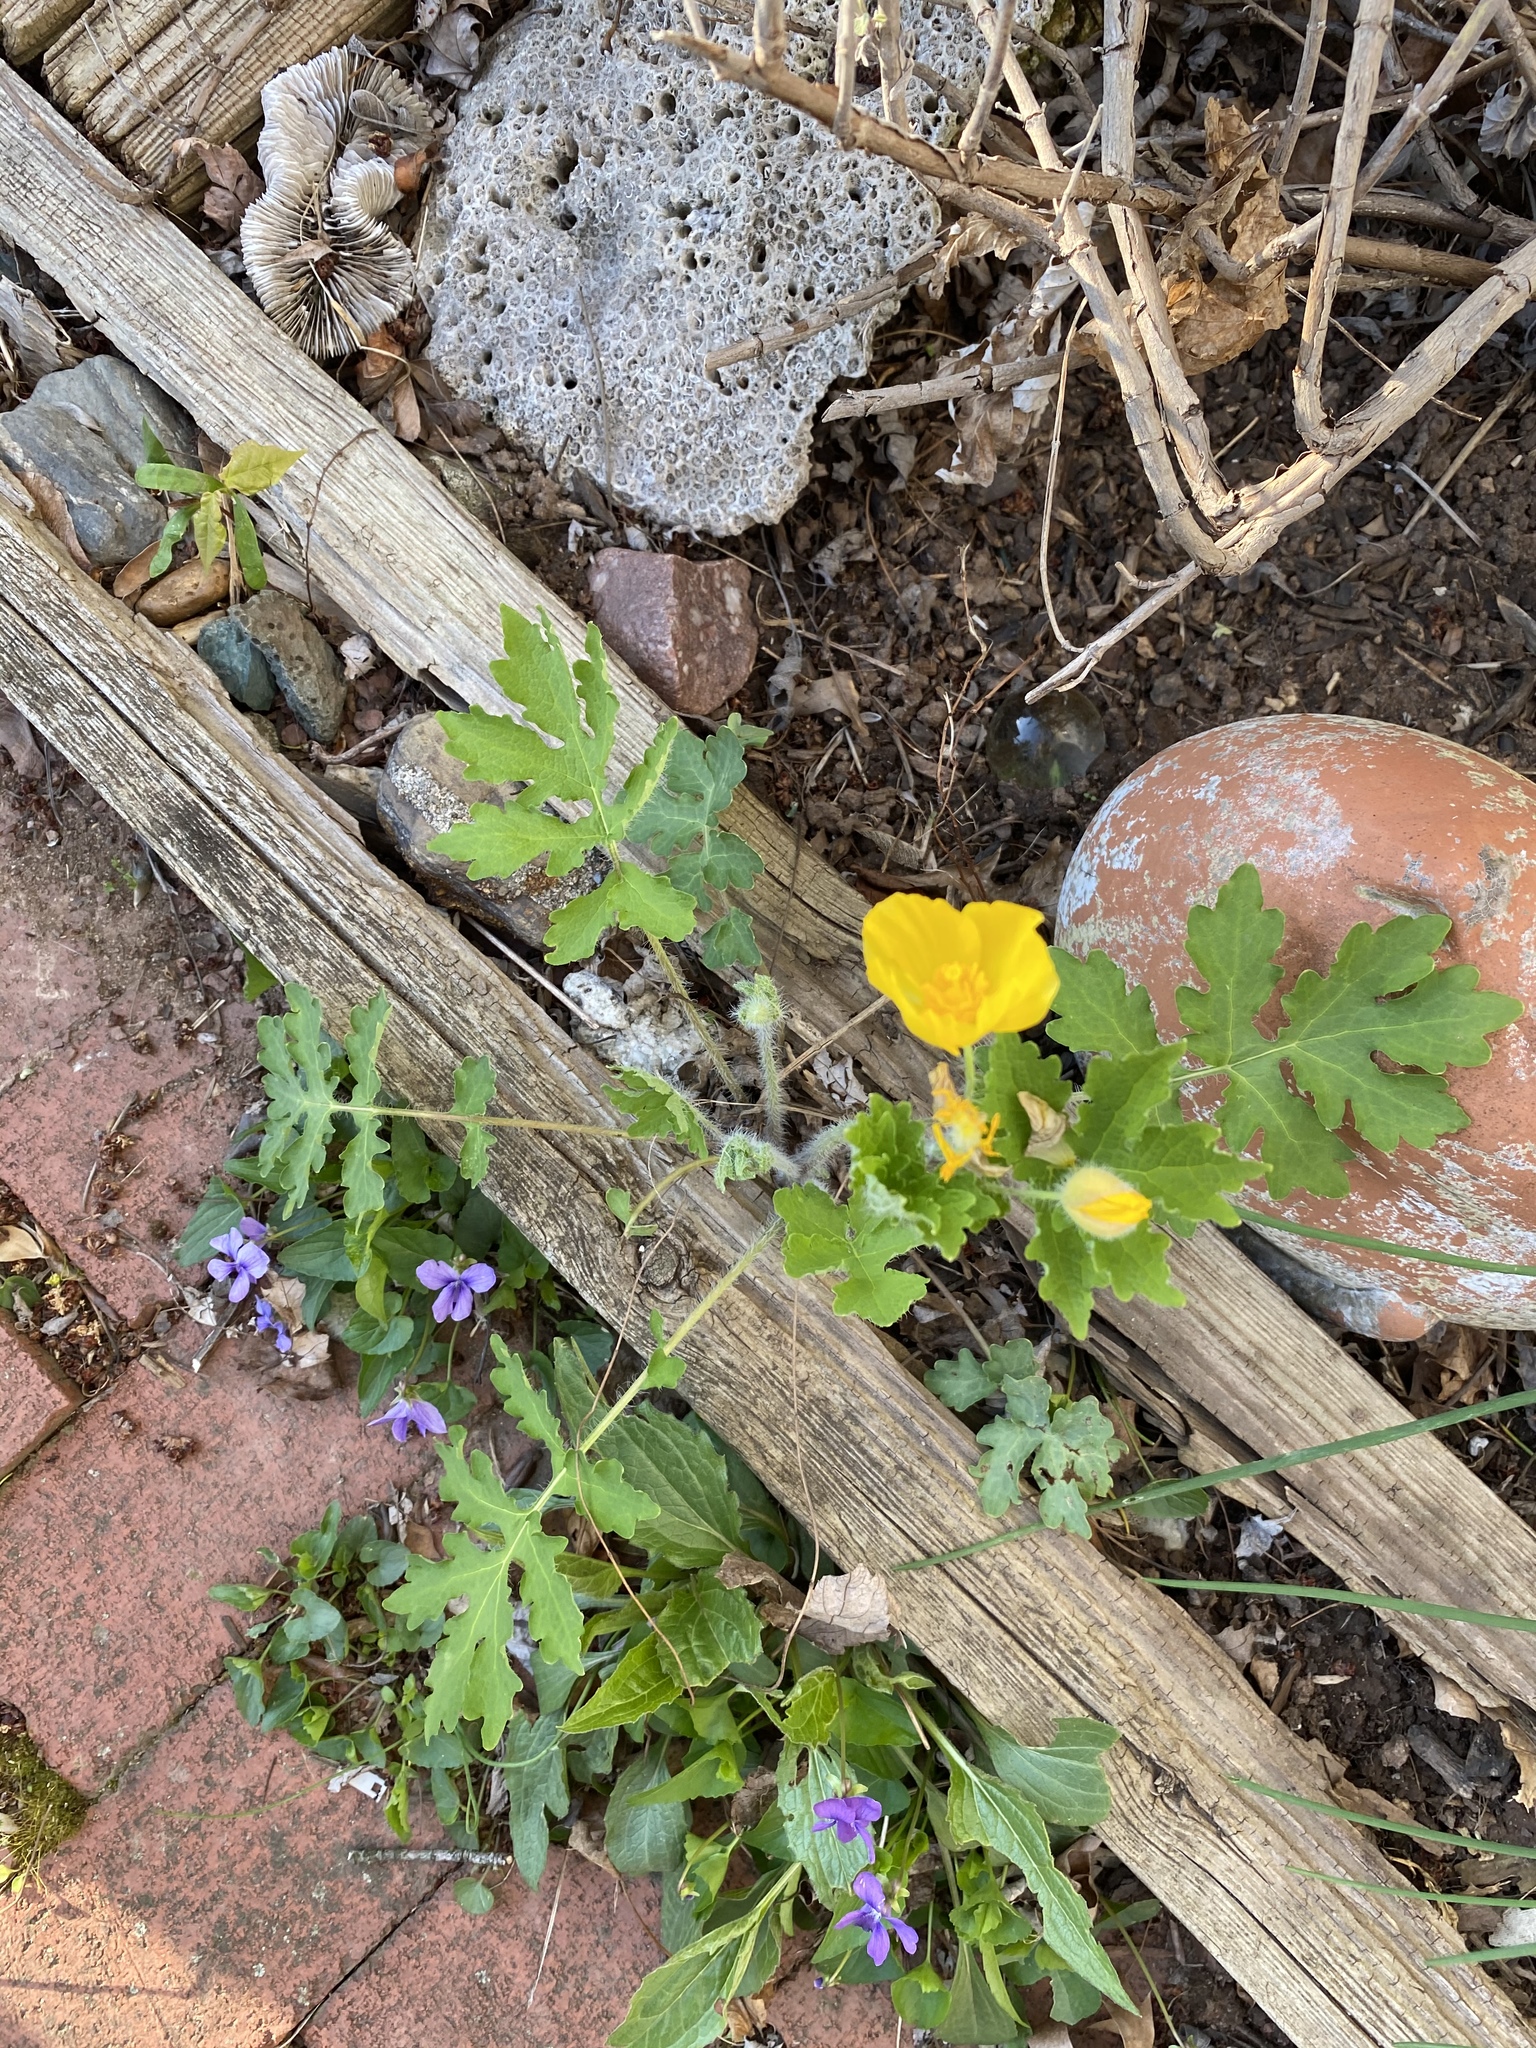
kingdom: Plantae
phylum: Tracheophyta
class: Magnoliopsida
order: Ranunculales
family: Papaveraceae
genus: Stylophorum
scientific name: Stylophorum diphyllum
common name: Celandine poppy
